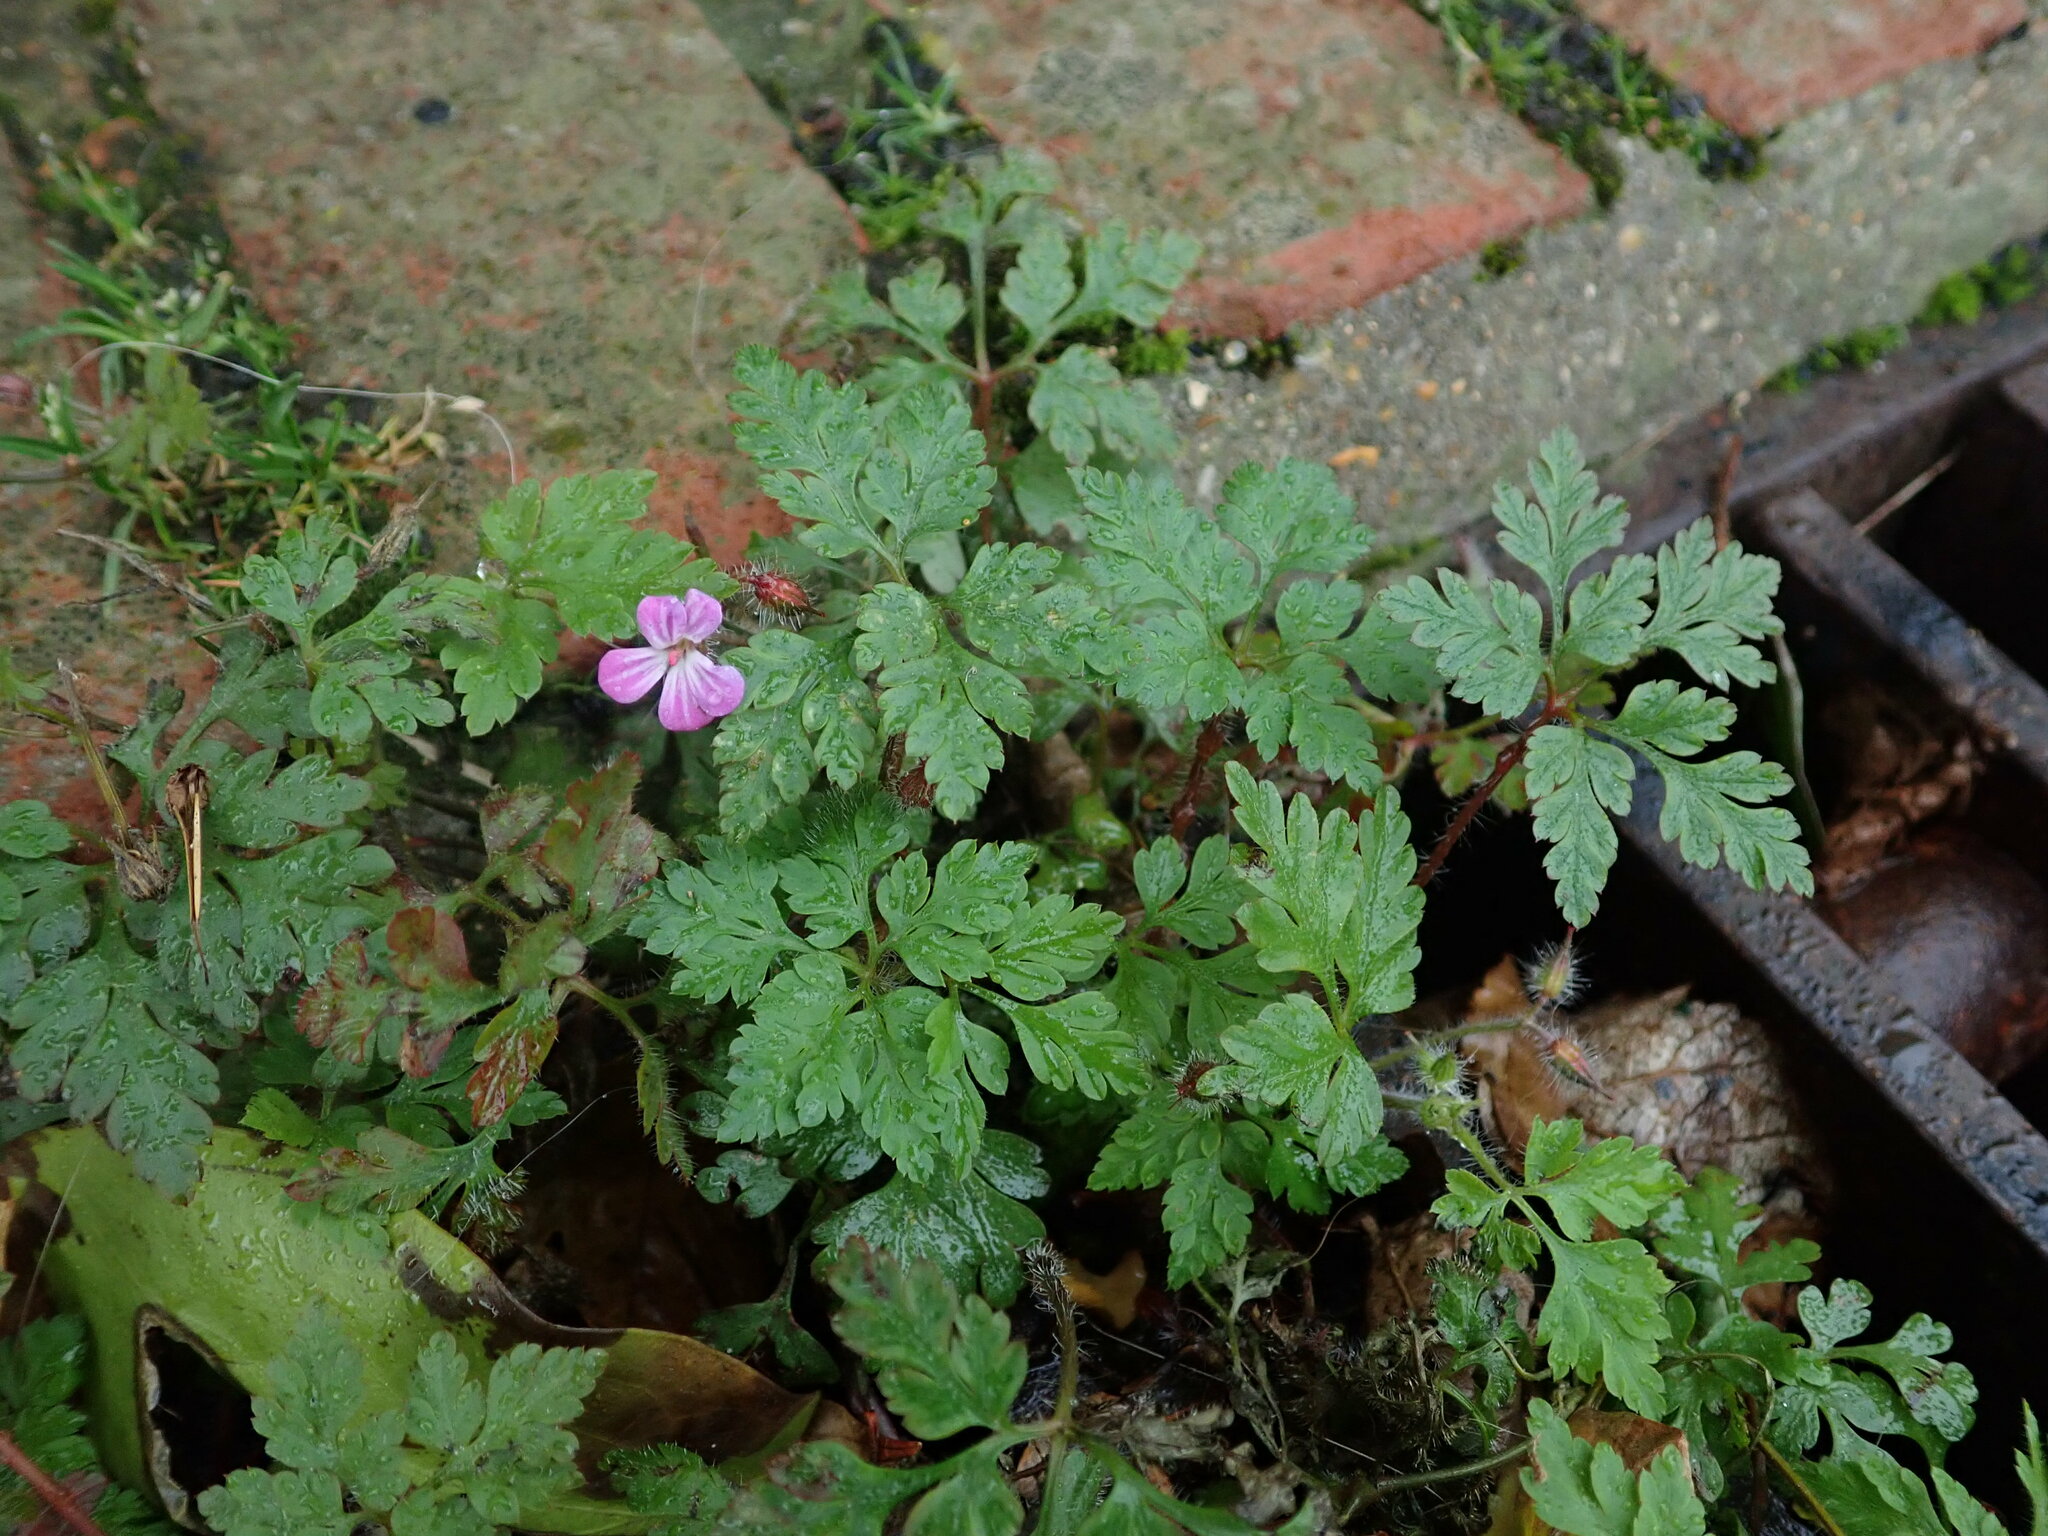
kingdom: Plantae
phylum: Tracheophyta
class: Magnoliopsida
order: Geraniales
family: Geraniaceae
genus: Geranium
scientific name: Geranium robertianum
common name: Herb-robert
